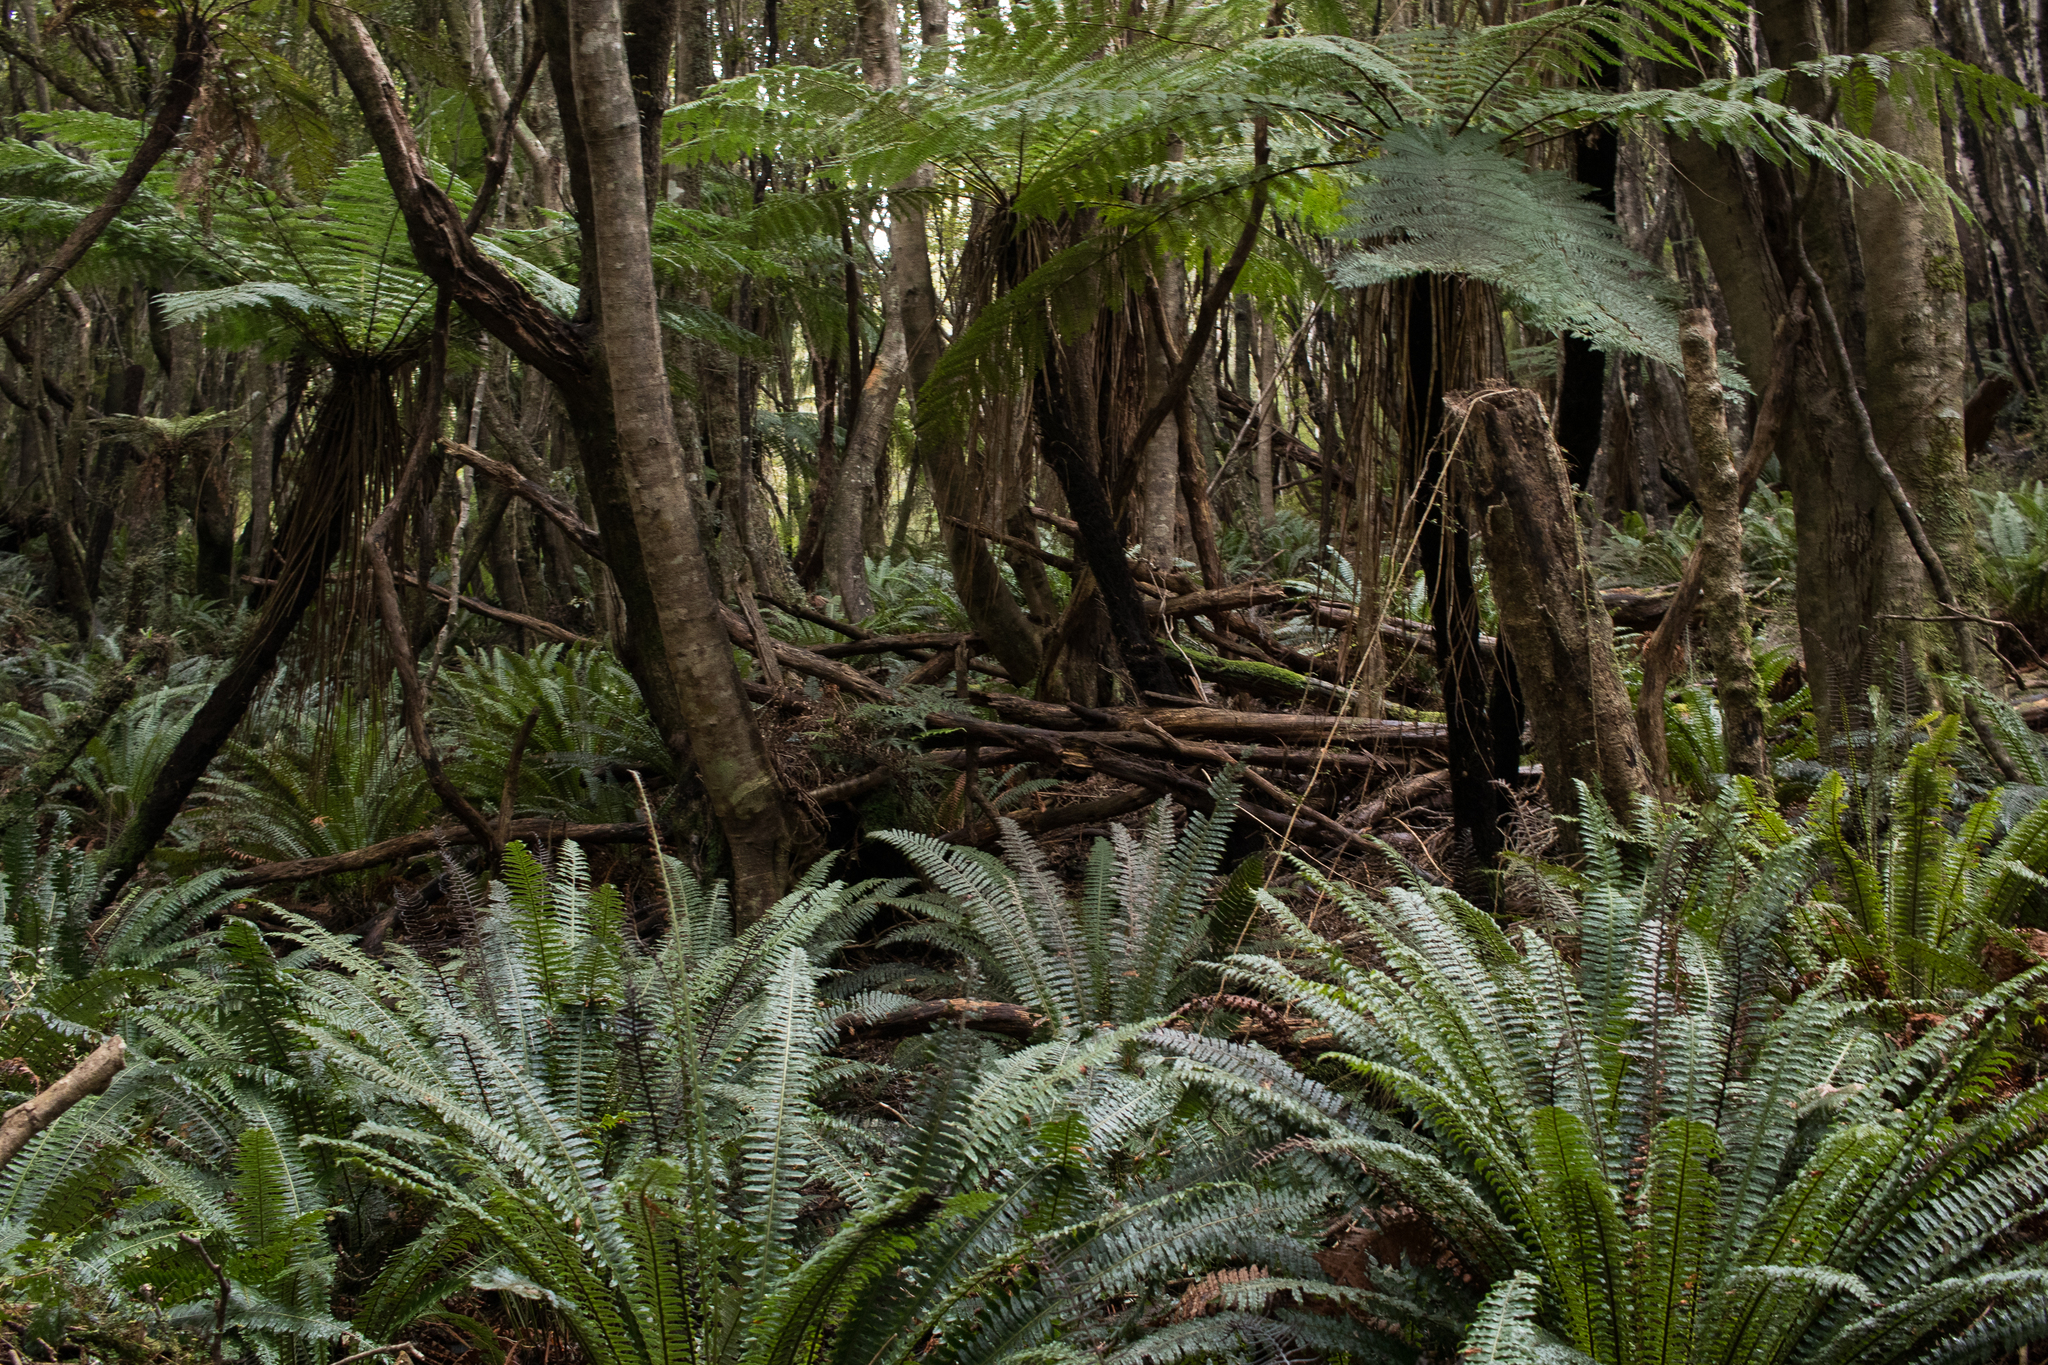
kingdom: Plantae
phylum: Tracheophyta
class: Polypodiopsida
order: Polypodiales
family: Blechnaceae
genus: Lomaria
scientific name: Lomaria discolor
